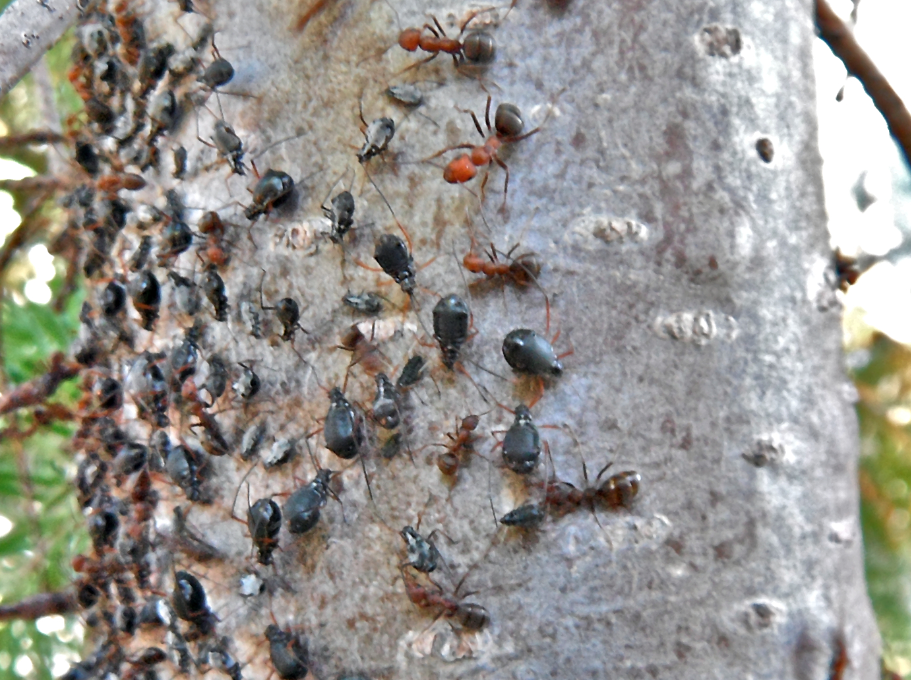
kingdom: Animalia
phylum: Arthropoda
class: Insecta
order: Hemiptera
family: Aphididae
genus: Cinara
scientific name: Cinara
